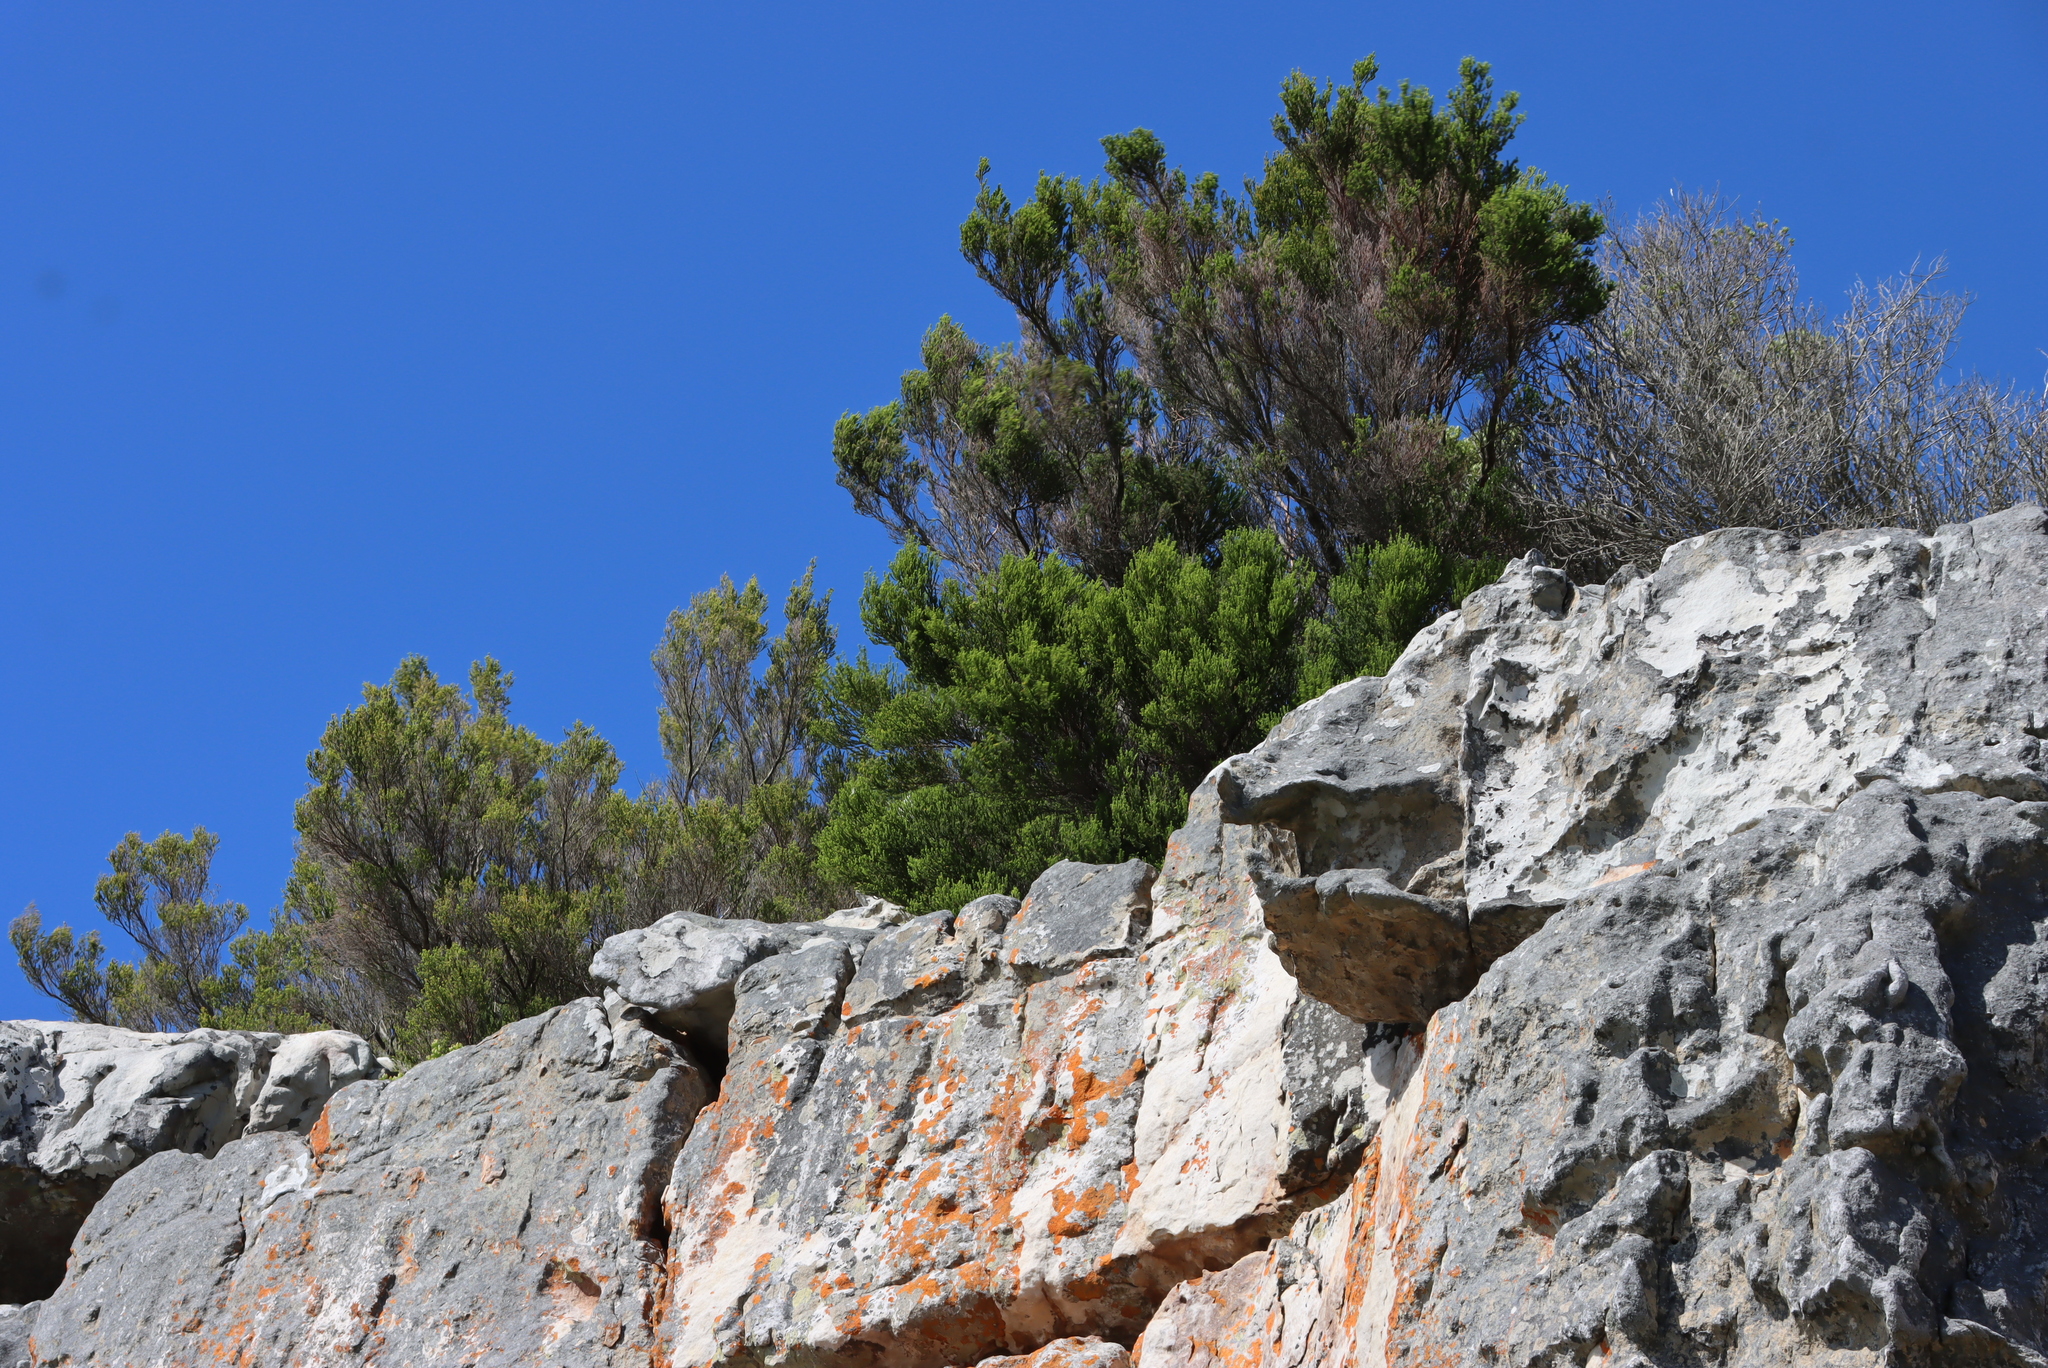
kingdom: Plantae
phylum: Tracheophyta
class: Magnoliopsida
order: Ericales
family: Ericaceae
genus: Erica
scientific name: Erica tristis
